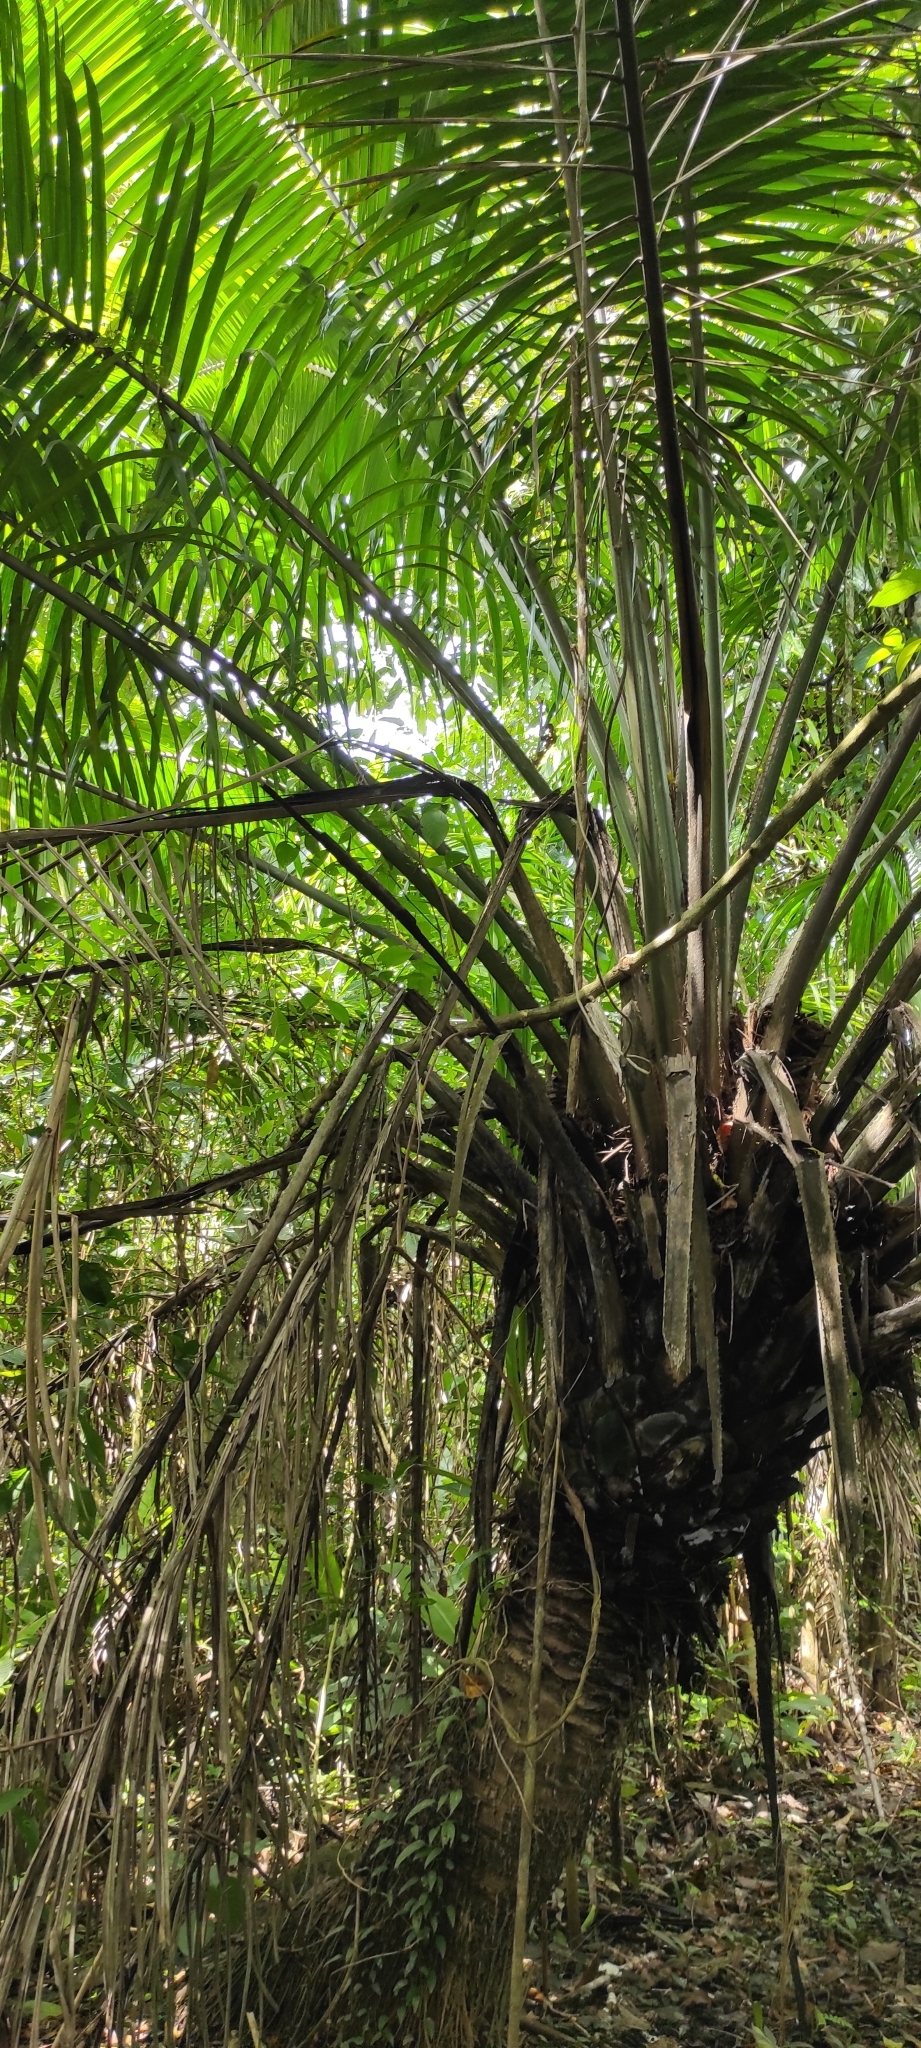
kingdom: Plantae
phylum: Tracheophyta
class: Liliopsida
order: Arecales
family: Arecaceae
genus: Elaeis
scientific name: Elaeis oleifera
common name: American oil palm
